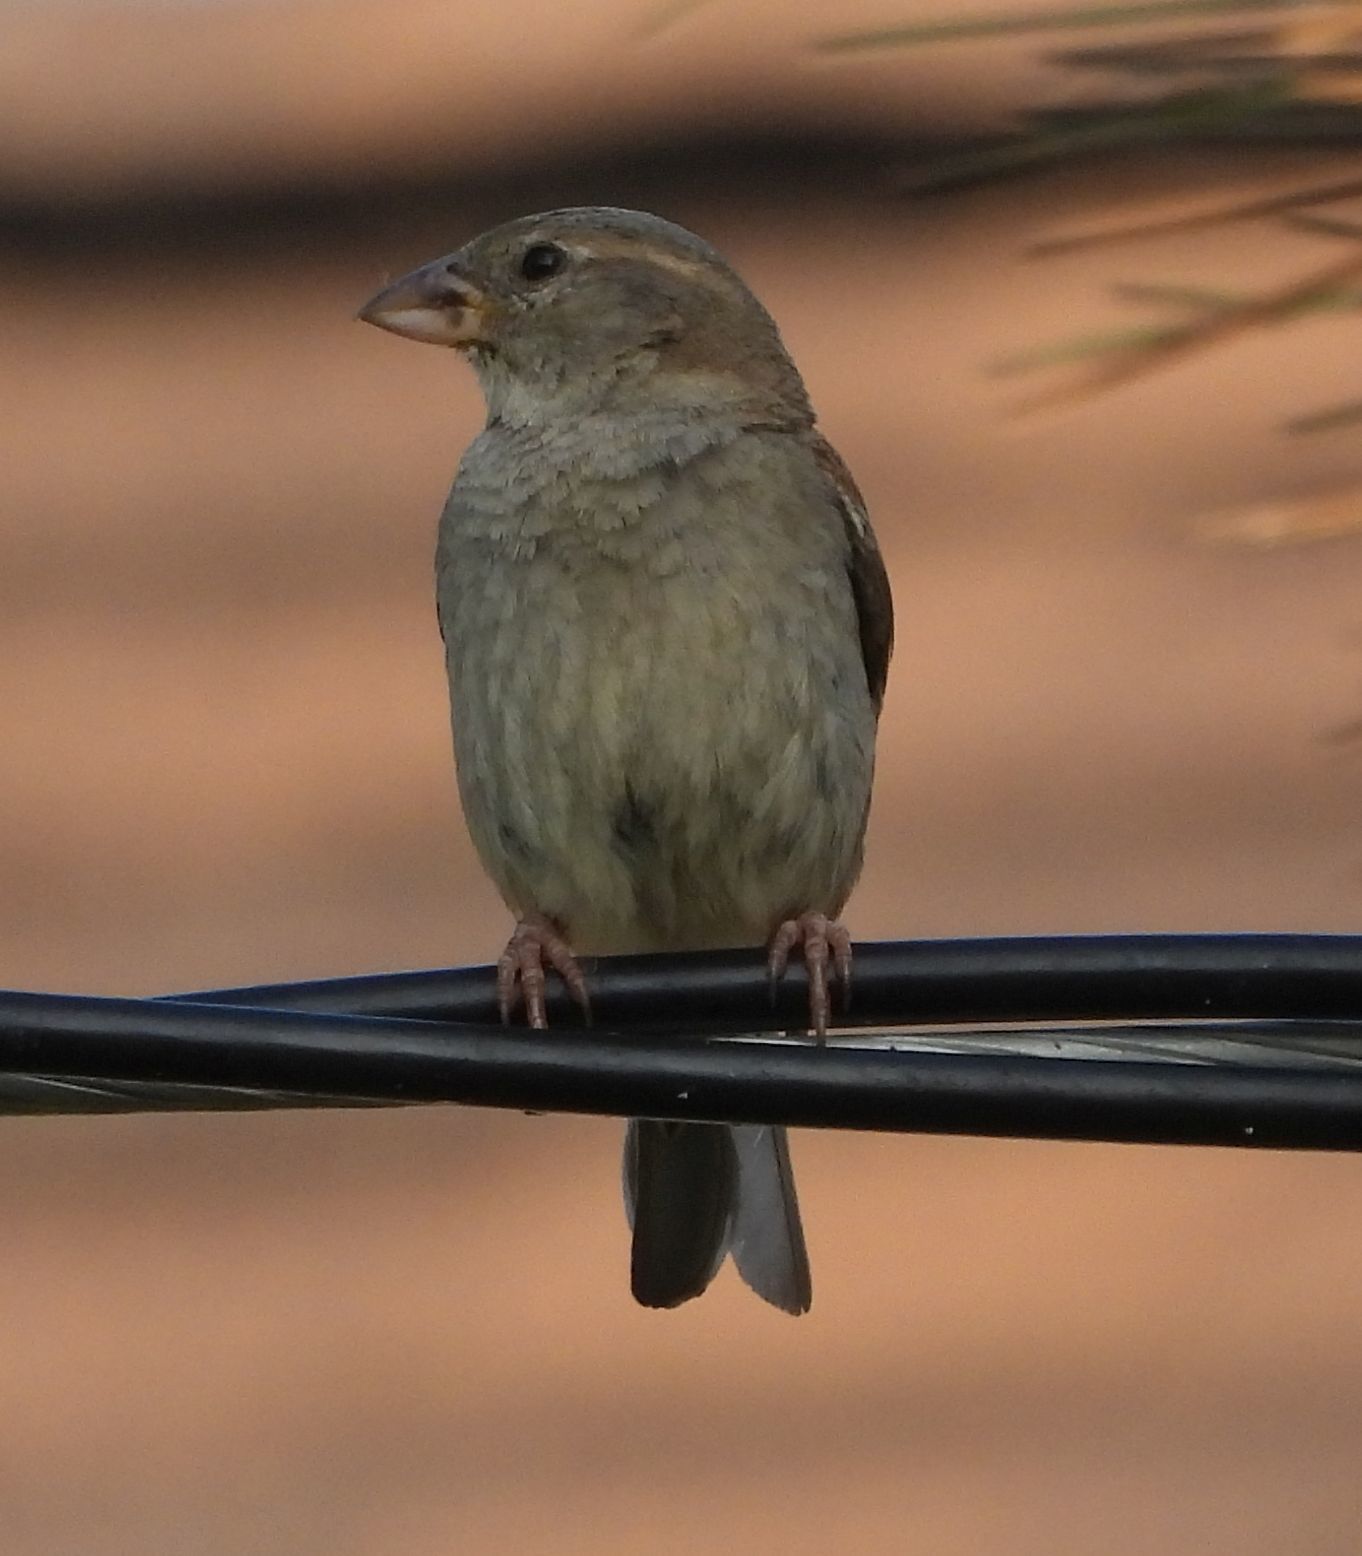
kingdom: Animalia
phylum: Chordata
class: Aves
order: Passeriformes
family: Passeridae
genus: Passer
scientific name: Passer domesticus
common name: House sparrow
